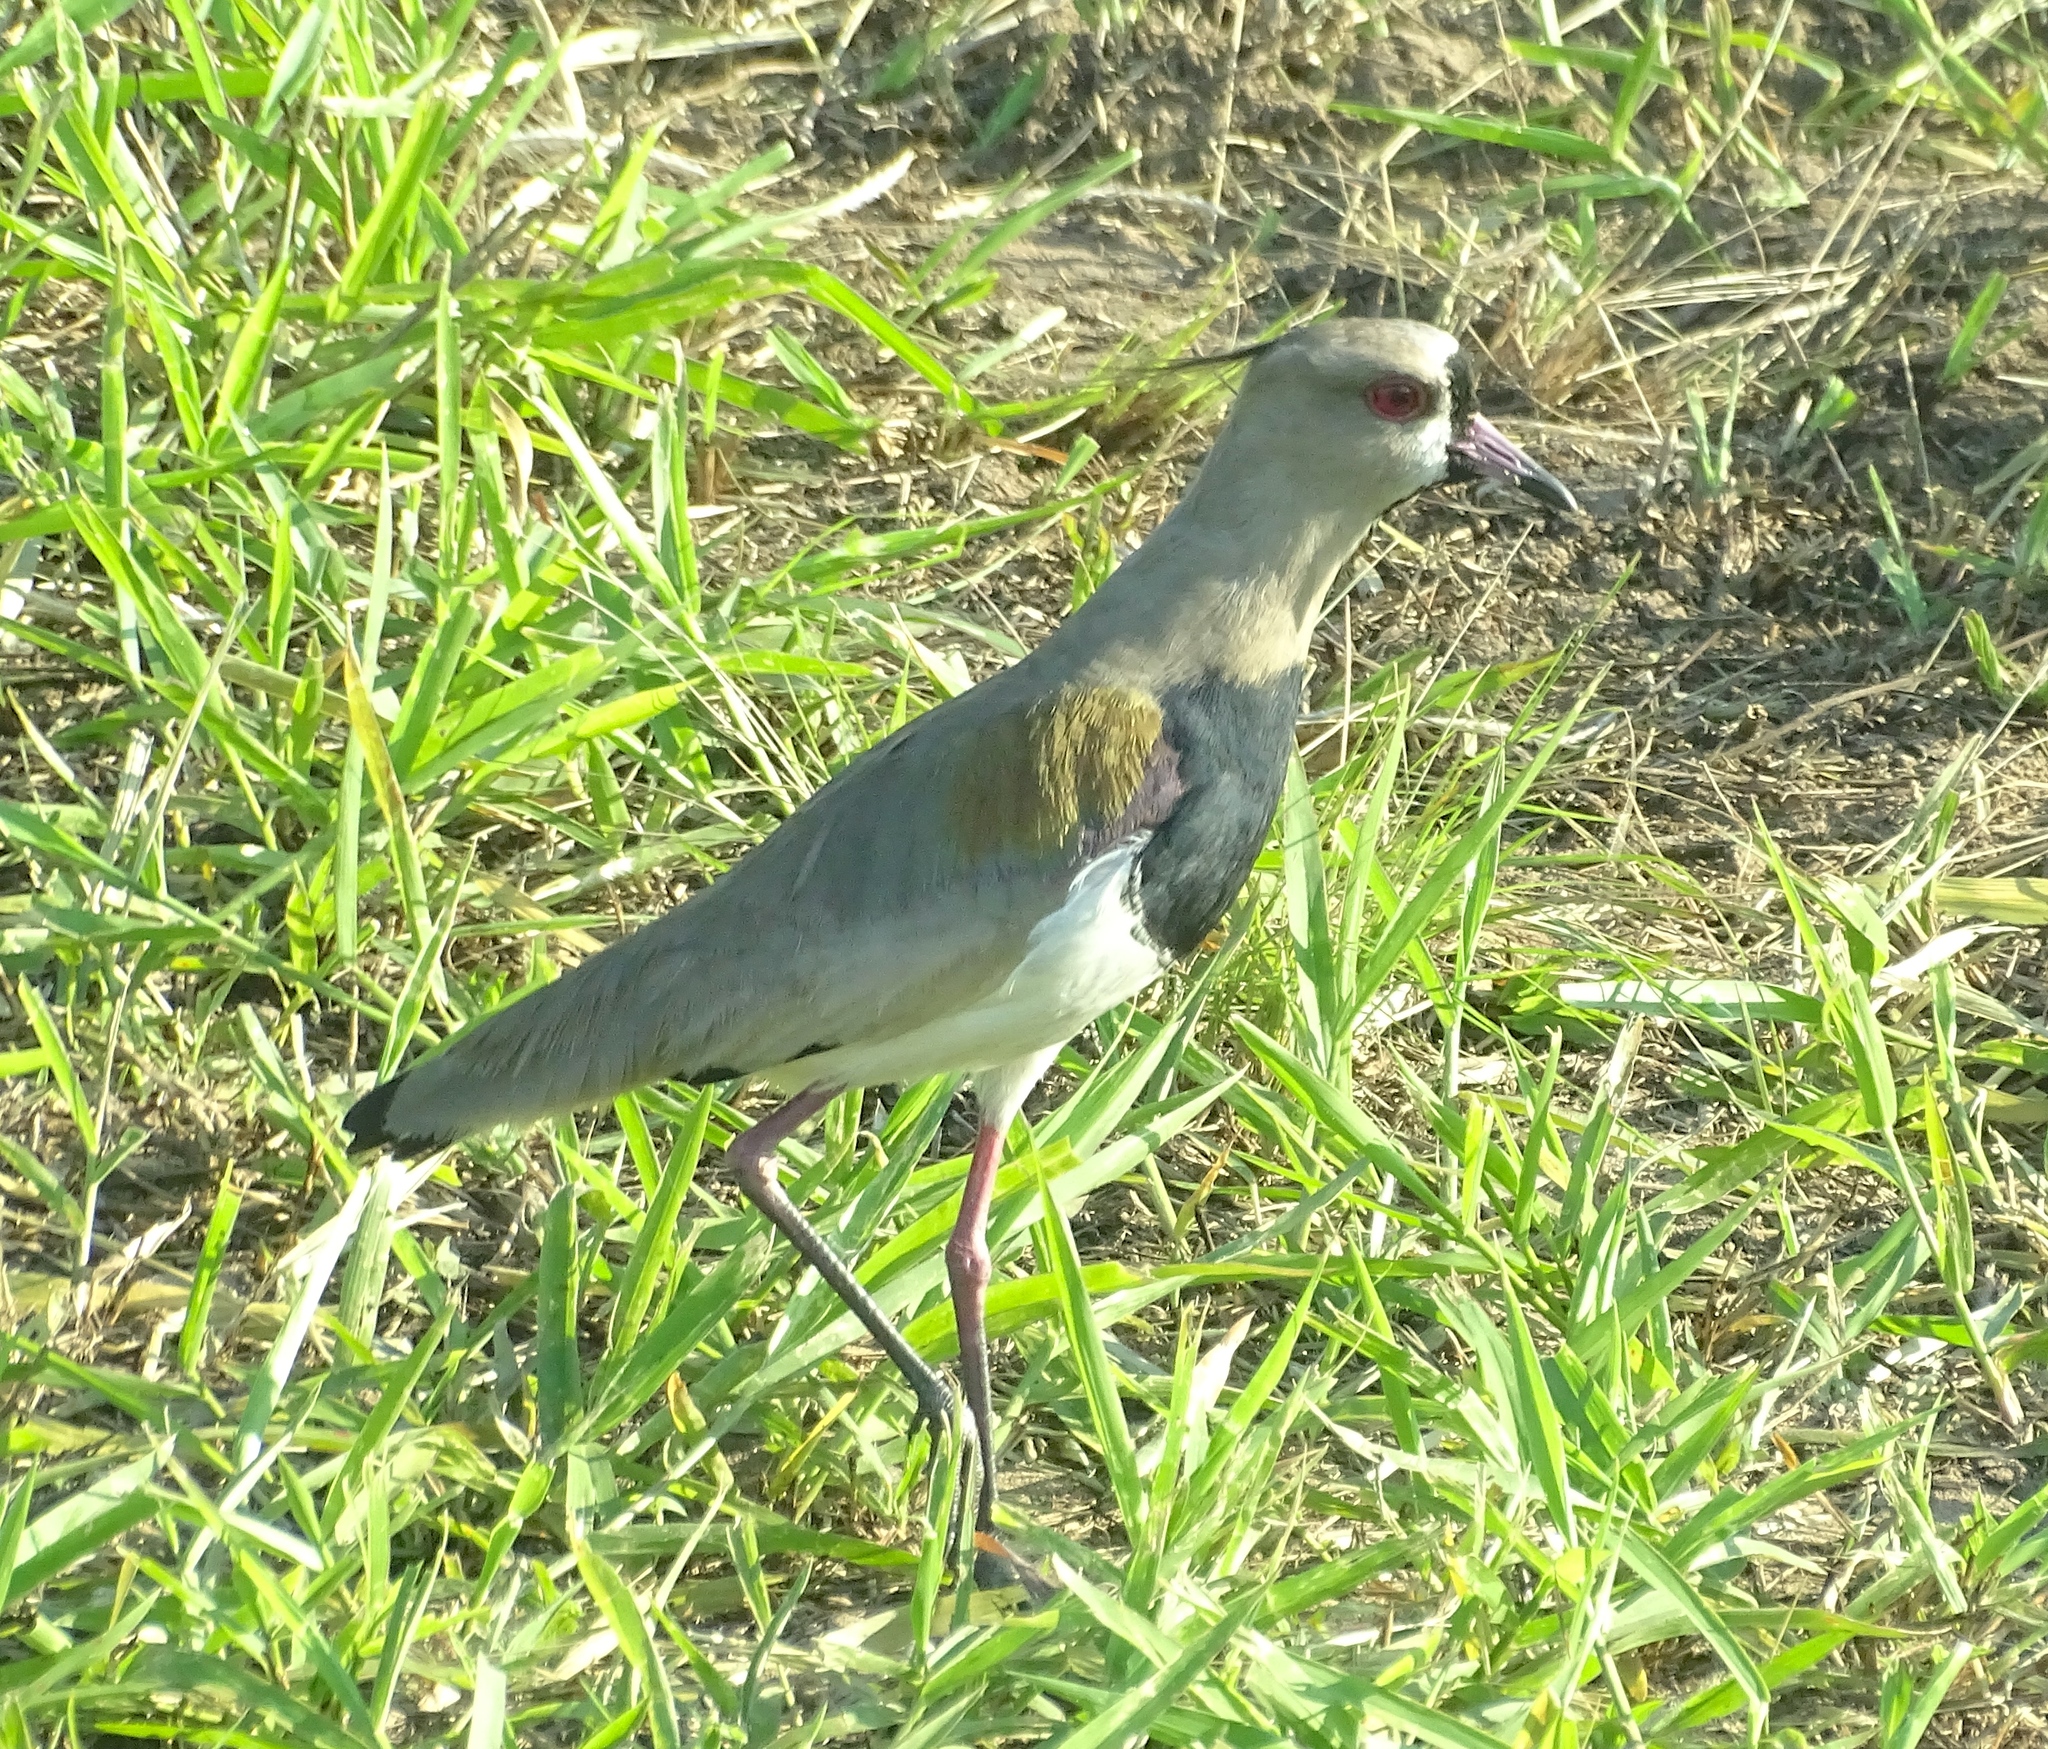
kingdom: Animalia
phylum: Chordata
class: Aves
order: Charadriiformes
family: Charadriidae
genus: Vanellus
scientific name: Vanellus chilensis
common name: Southern lapwing
